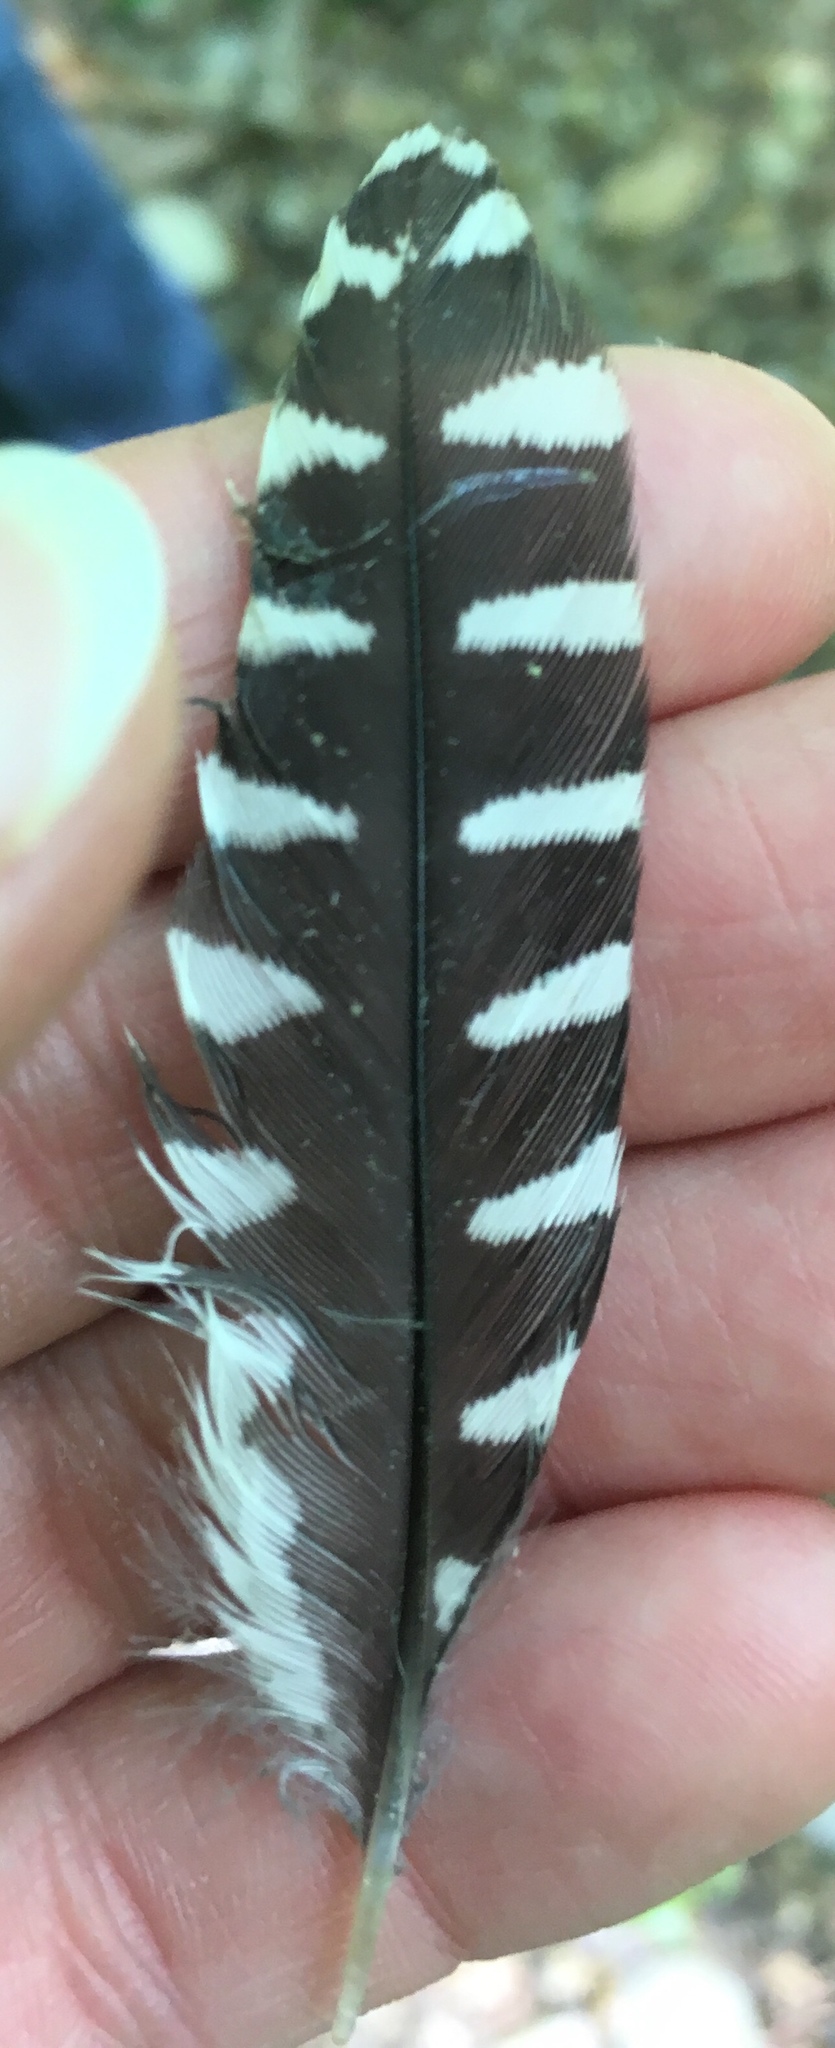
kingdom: Animalia
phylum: Chordata
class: Aves
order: Piciformes
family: Picidae
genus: Melanerpes
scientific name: Melanerpes carolinus
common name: Red-bellied woodpecker
